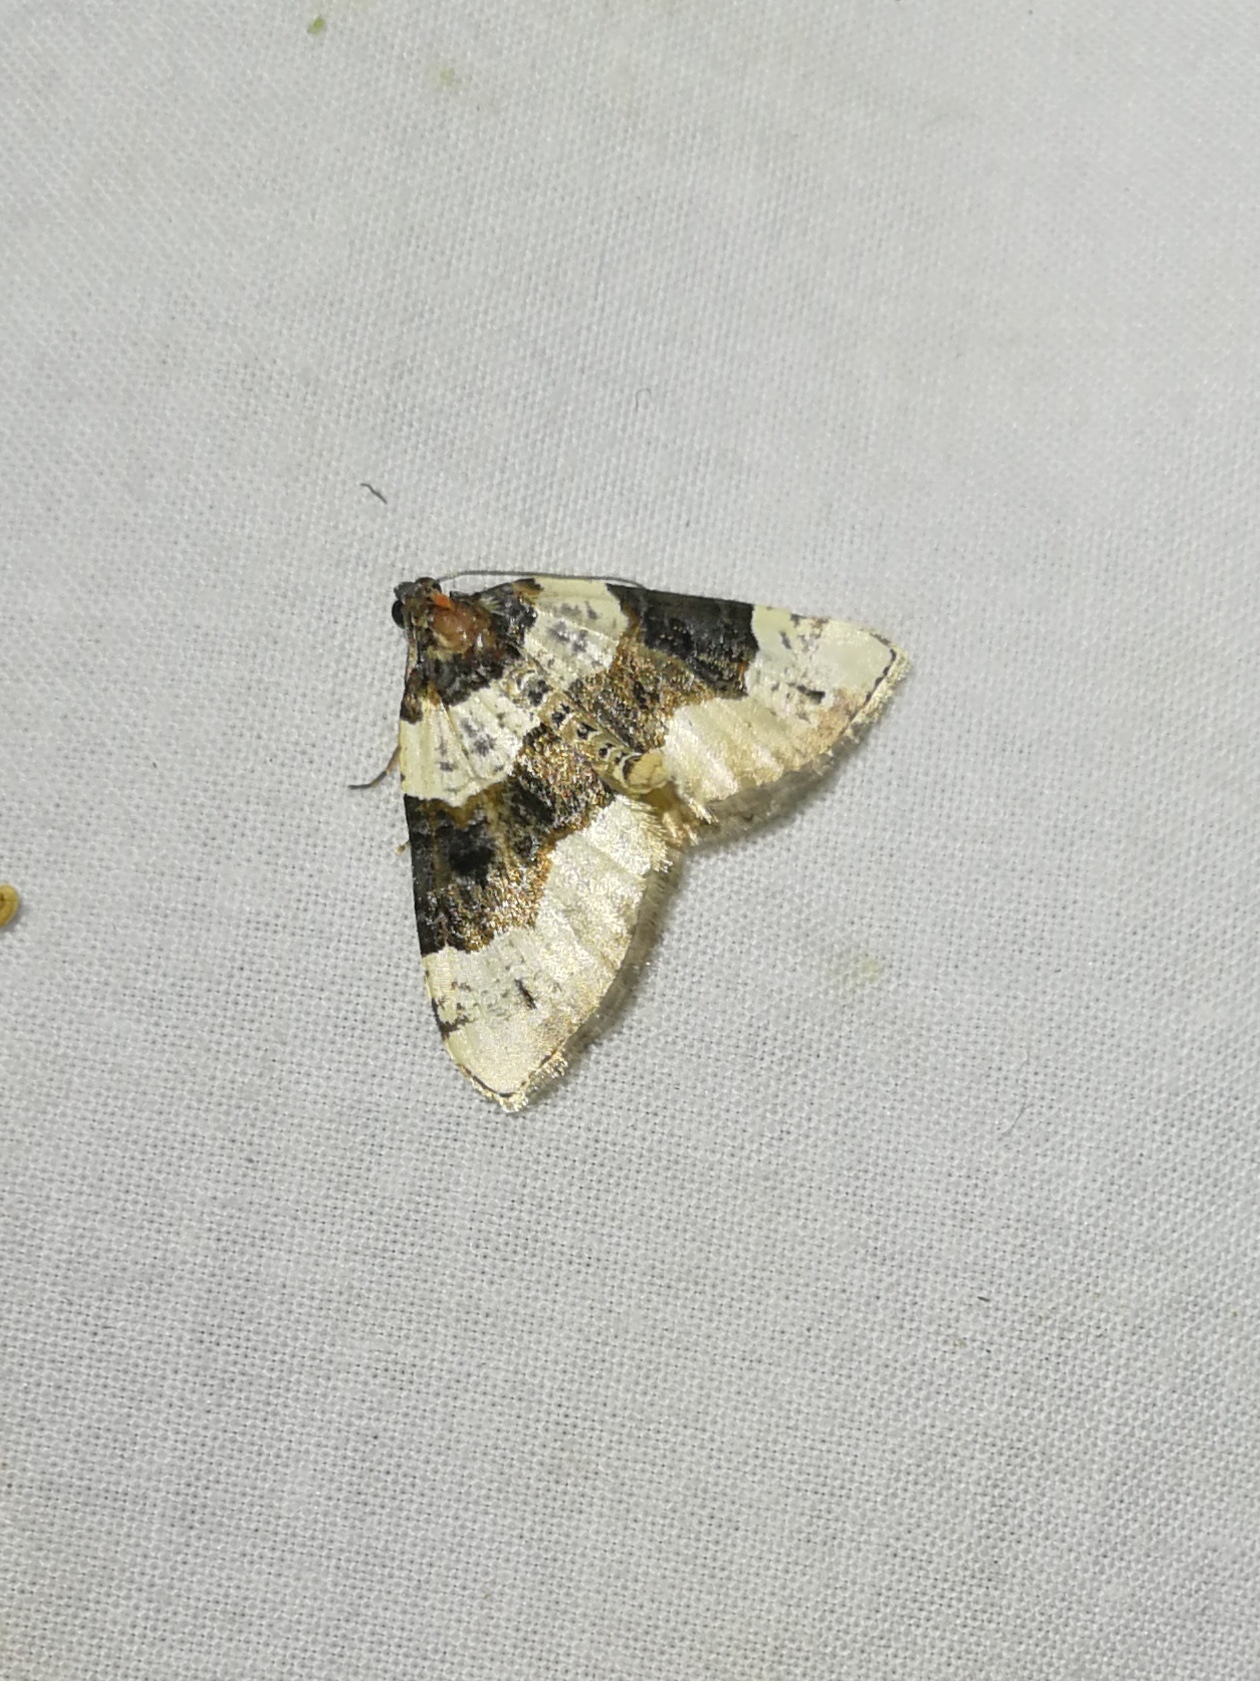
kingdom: Animalia
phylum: Arthropoda
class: Insecta
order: Lepidoptera
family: Geometridae
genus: Cosmorhoe
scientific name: Cosmorhoe ocellata
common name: Purple bar
